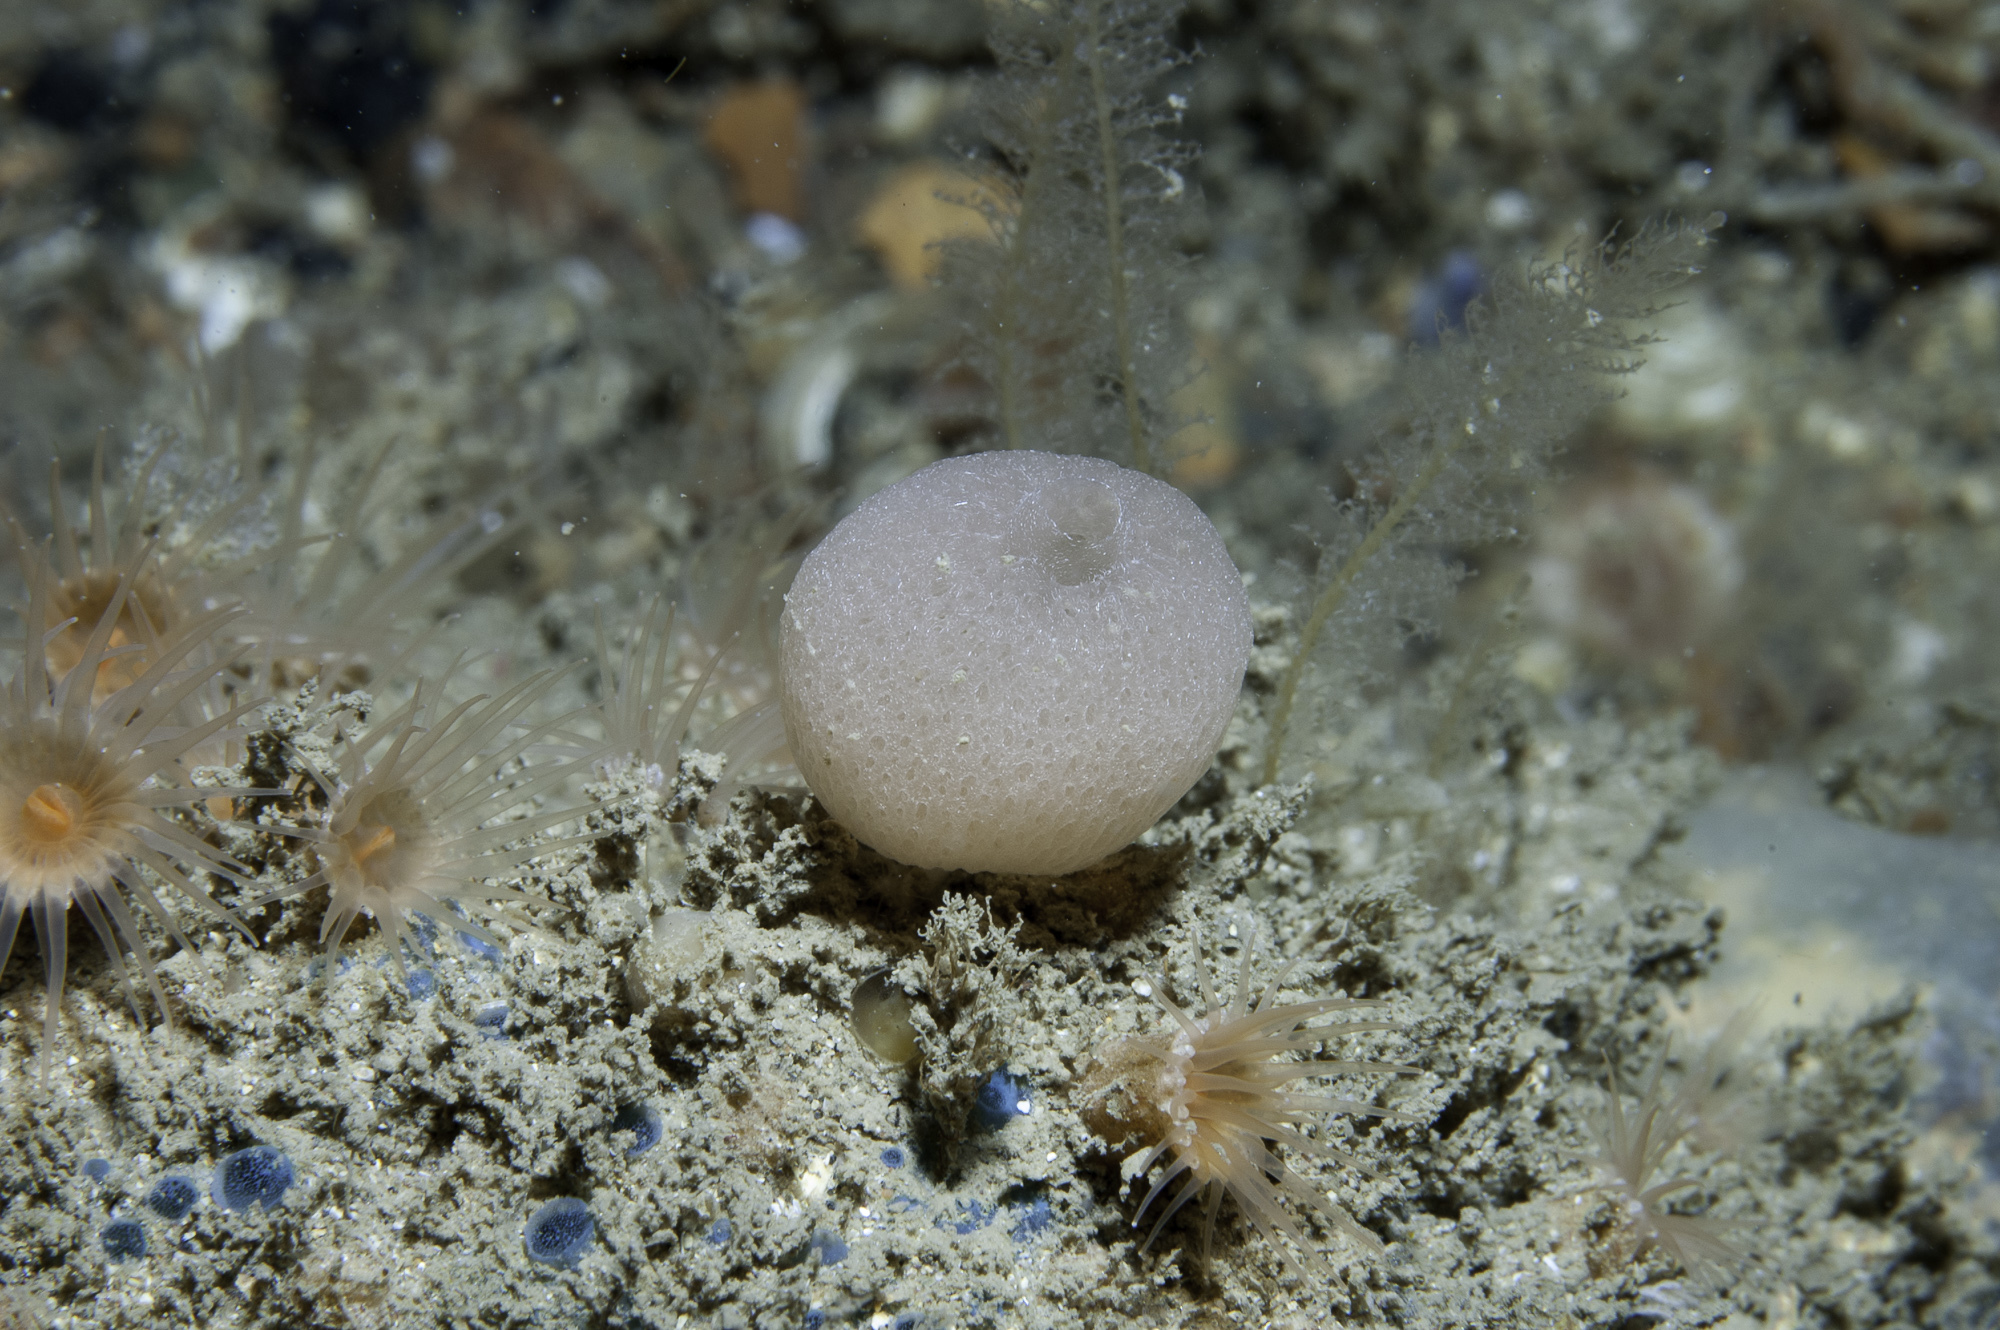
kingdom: Animalia
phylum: Porifera
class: Calcarea
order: Clathrinida
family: Clathrinidae
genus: Clathrina
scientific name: Clathrina lacunosa
